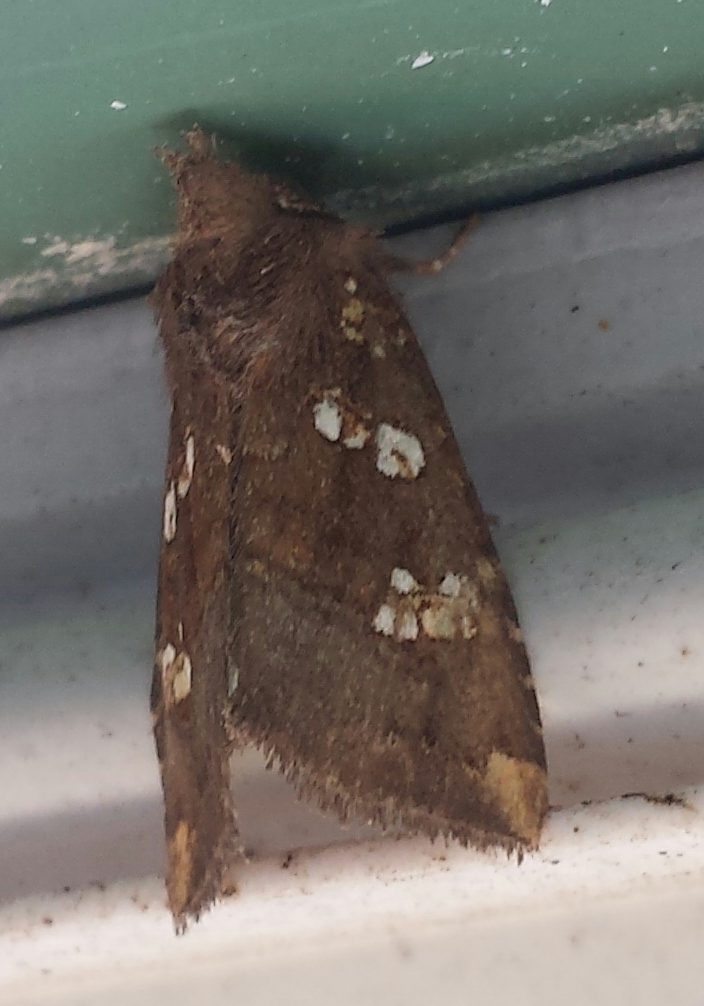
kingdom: Animalia
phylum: Arthropoda
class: Insecta
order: Lepidoptera
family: Noctuidae
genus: Papaipema
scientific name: Papaipema unimoda
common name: Meadow rue borer moth
